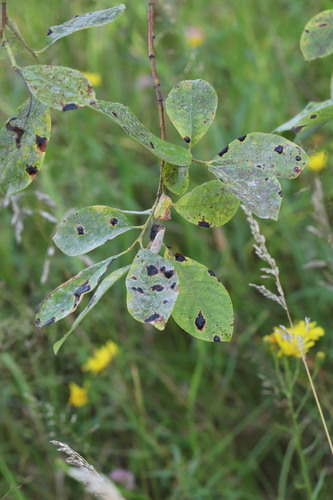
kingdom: Fungi
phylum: Ascomycota
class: Leotiomycetes
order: Rhytismatales
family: Rhytismataceae
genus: Rhytisma
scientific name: Rhytisma salicinum
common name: Willow tarspot
